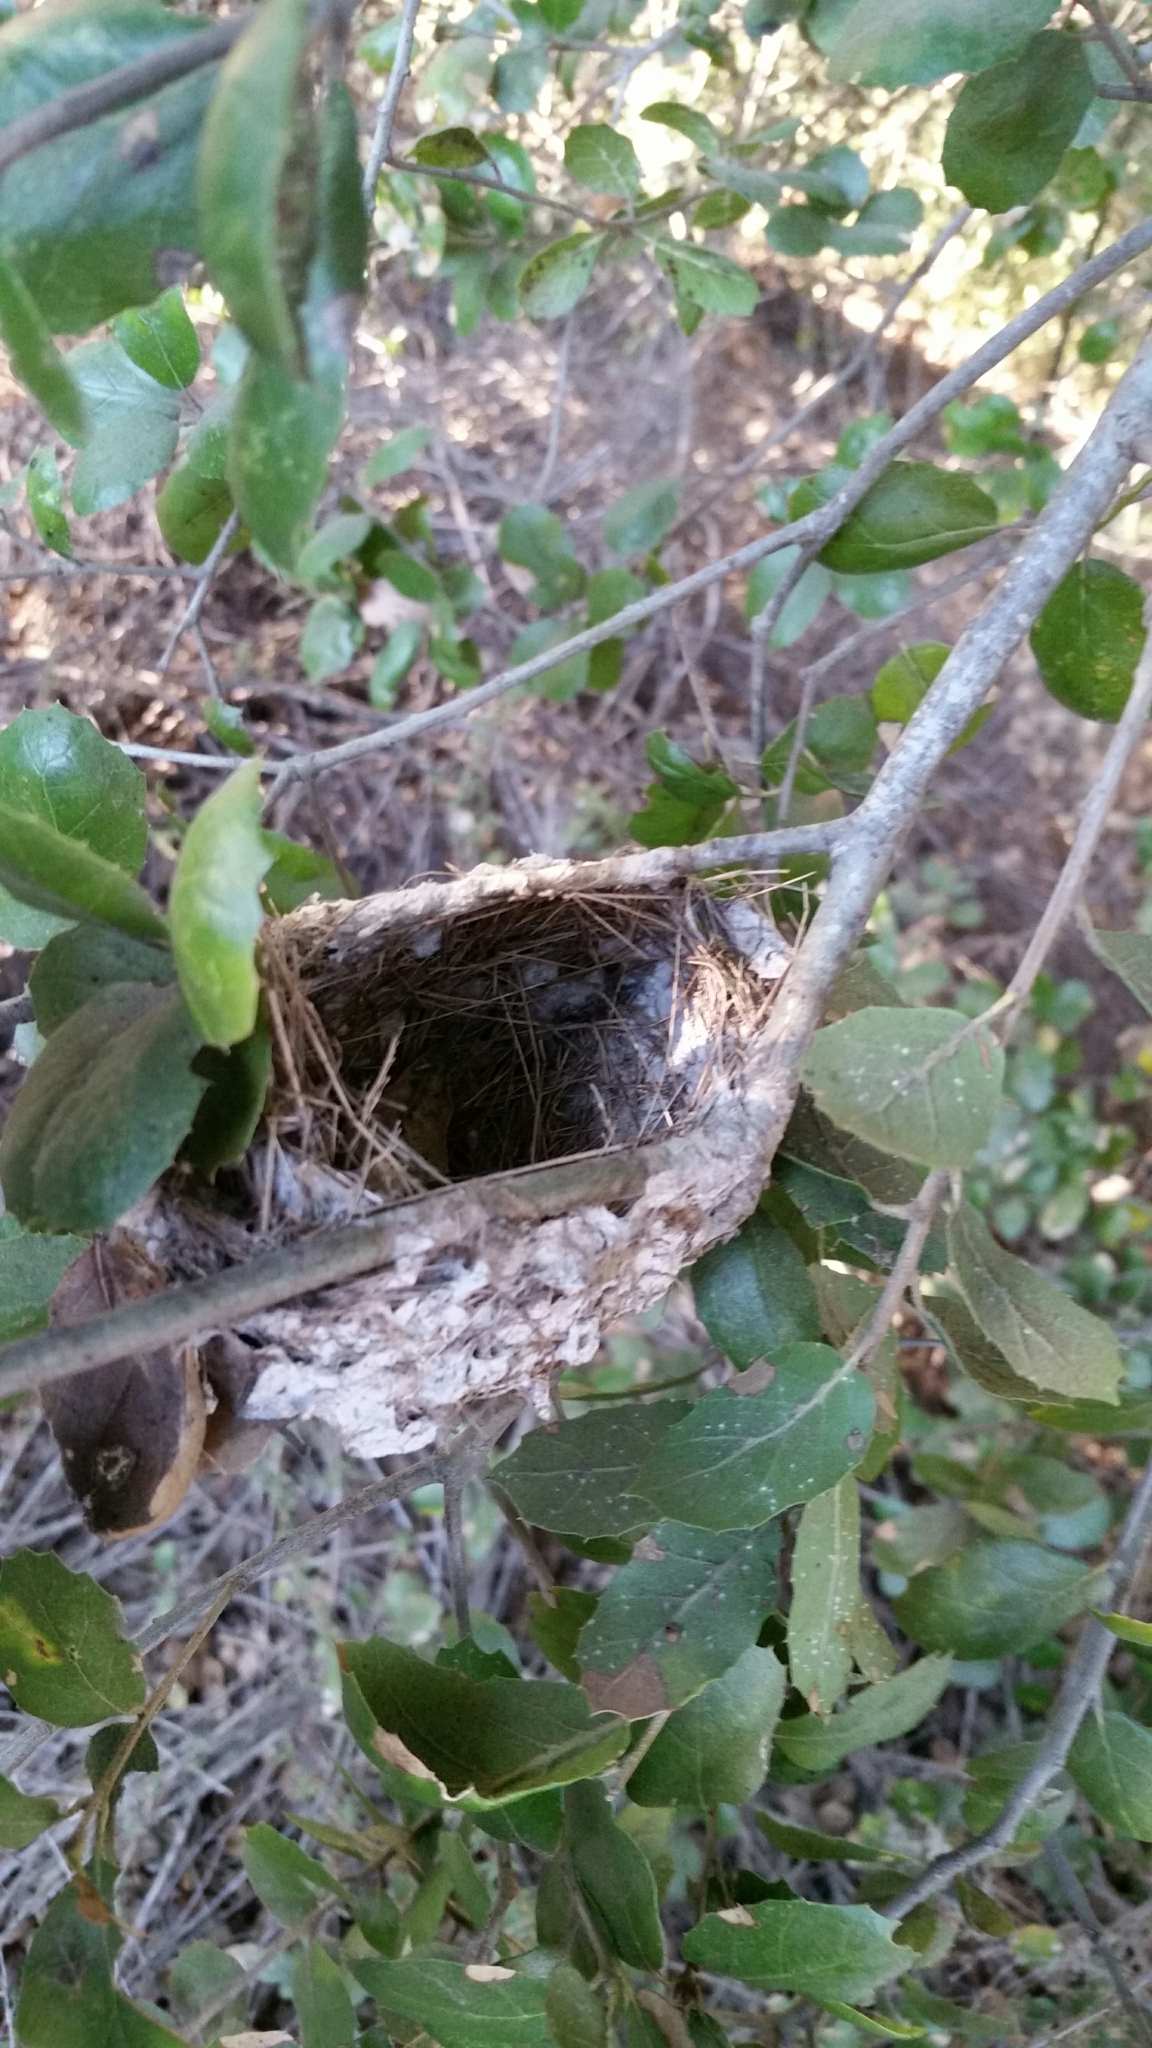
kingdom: Animalia
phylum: Chordata
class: Aves
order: Passeriformes
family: Vireonidae
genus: Vireo
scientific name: Vireo huttoni
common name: Hutton's vireo
